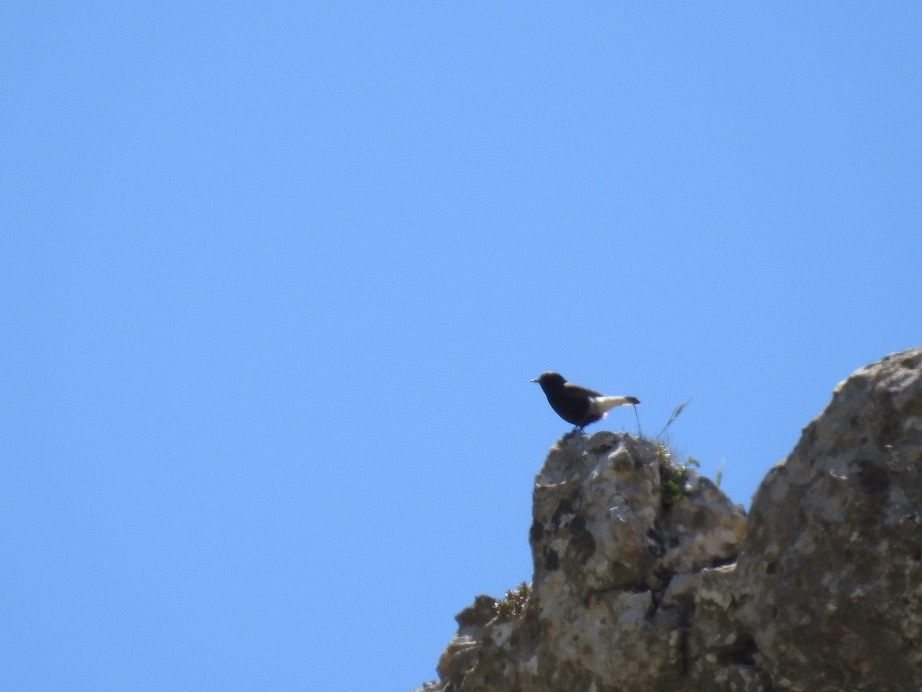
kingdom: Animalia
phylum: Chordata
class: Aves
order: Passeriformes
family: Muscicapidae
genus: Oenanthe
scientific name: Oenanthe leucura
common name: Black wheatear
